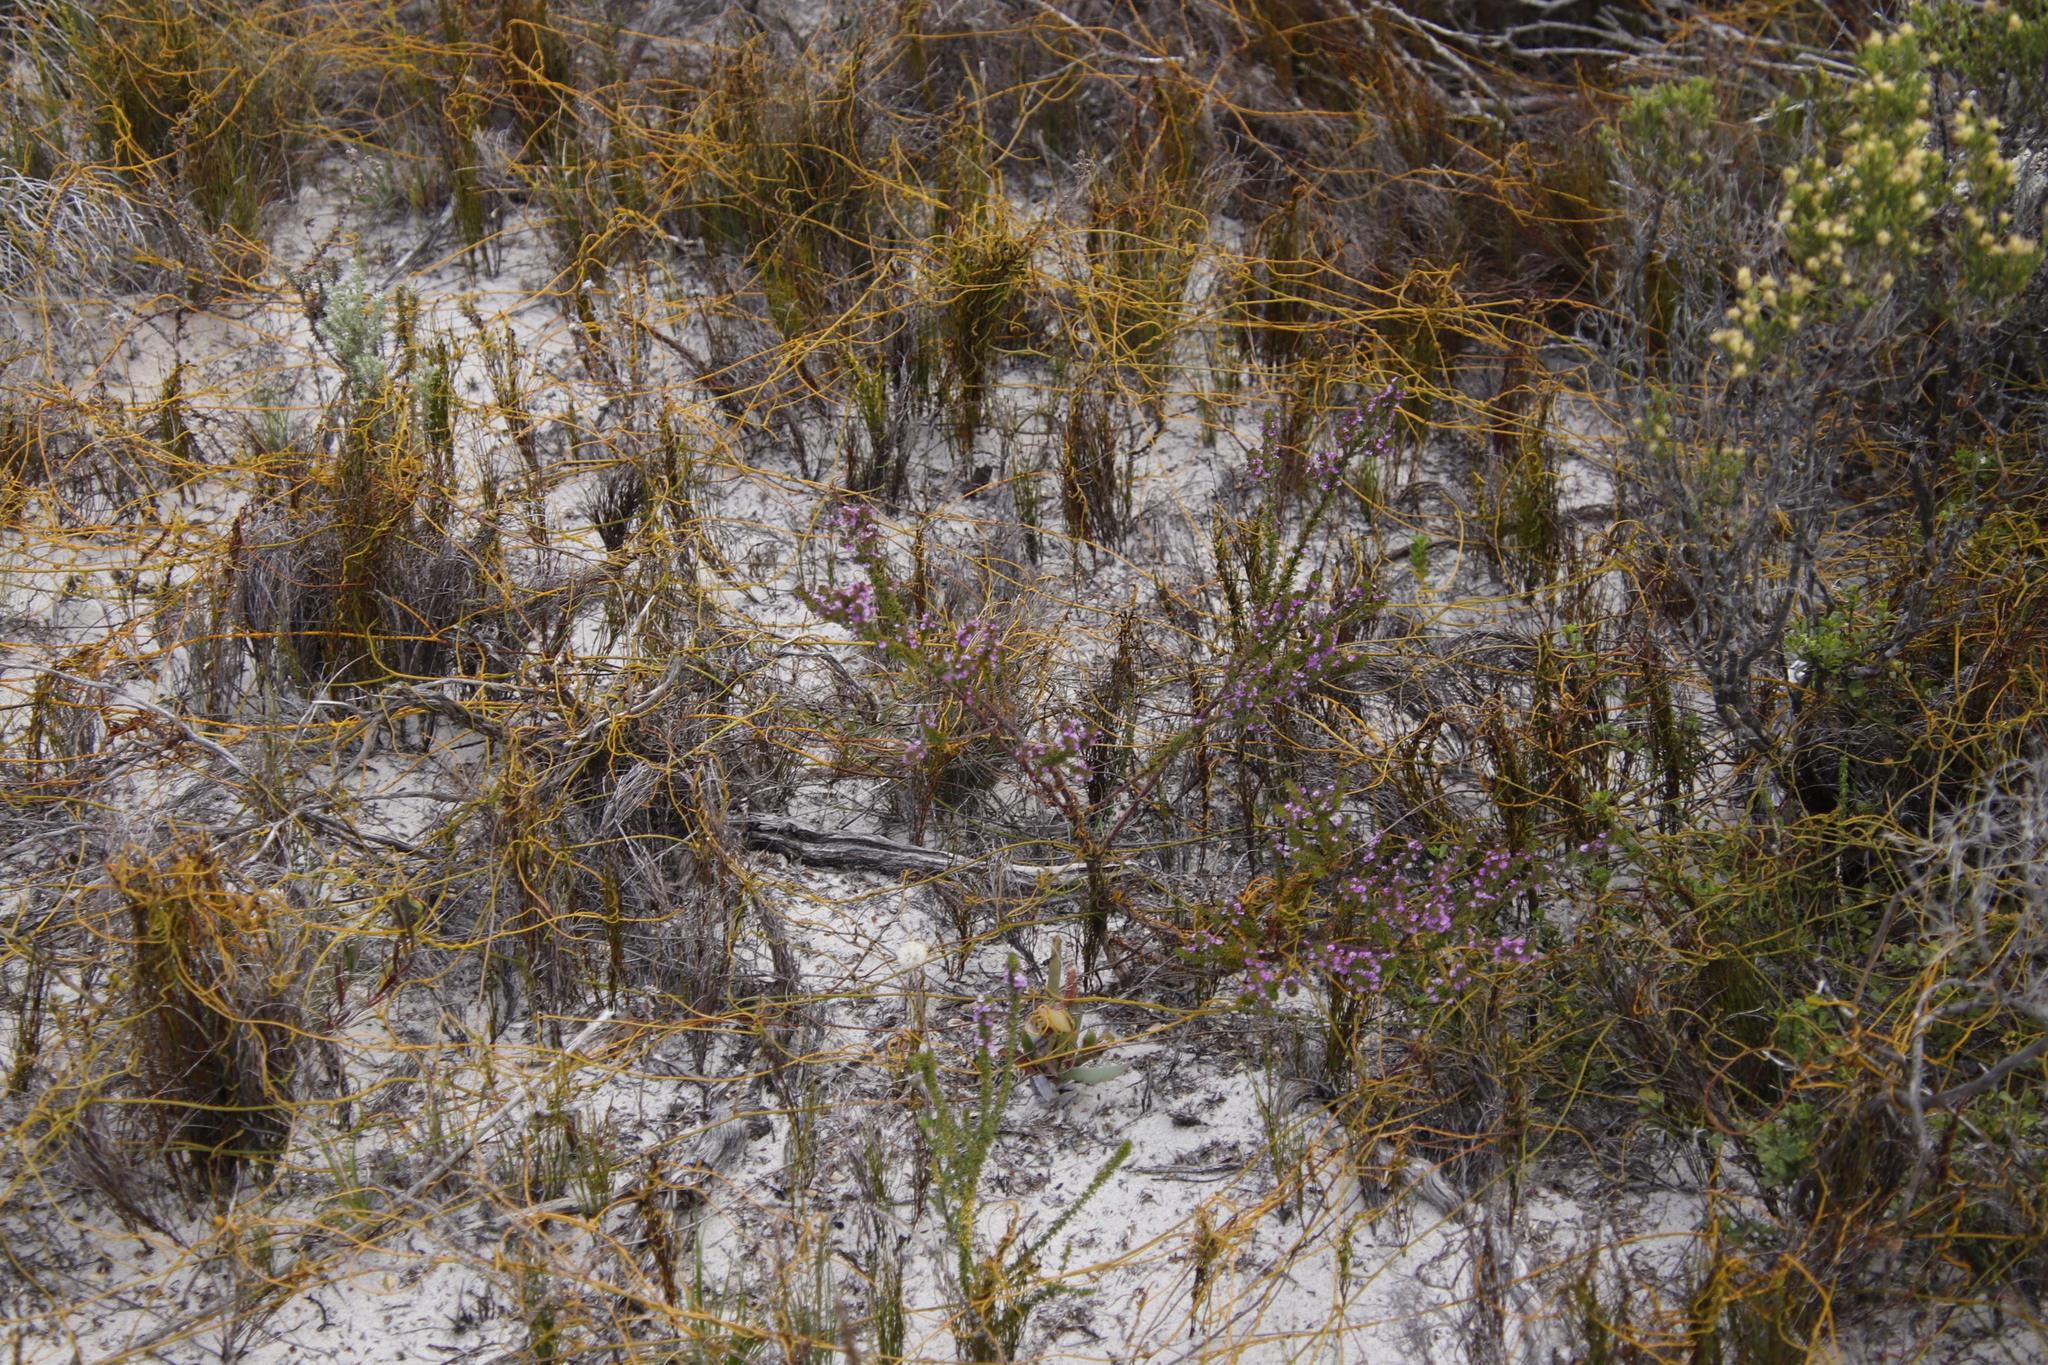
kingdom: Plantae
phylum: Tracheophyta
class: Liliopsida
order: Poales
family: Restionaceae
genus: Restio
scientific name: Restio eleocharis
